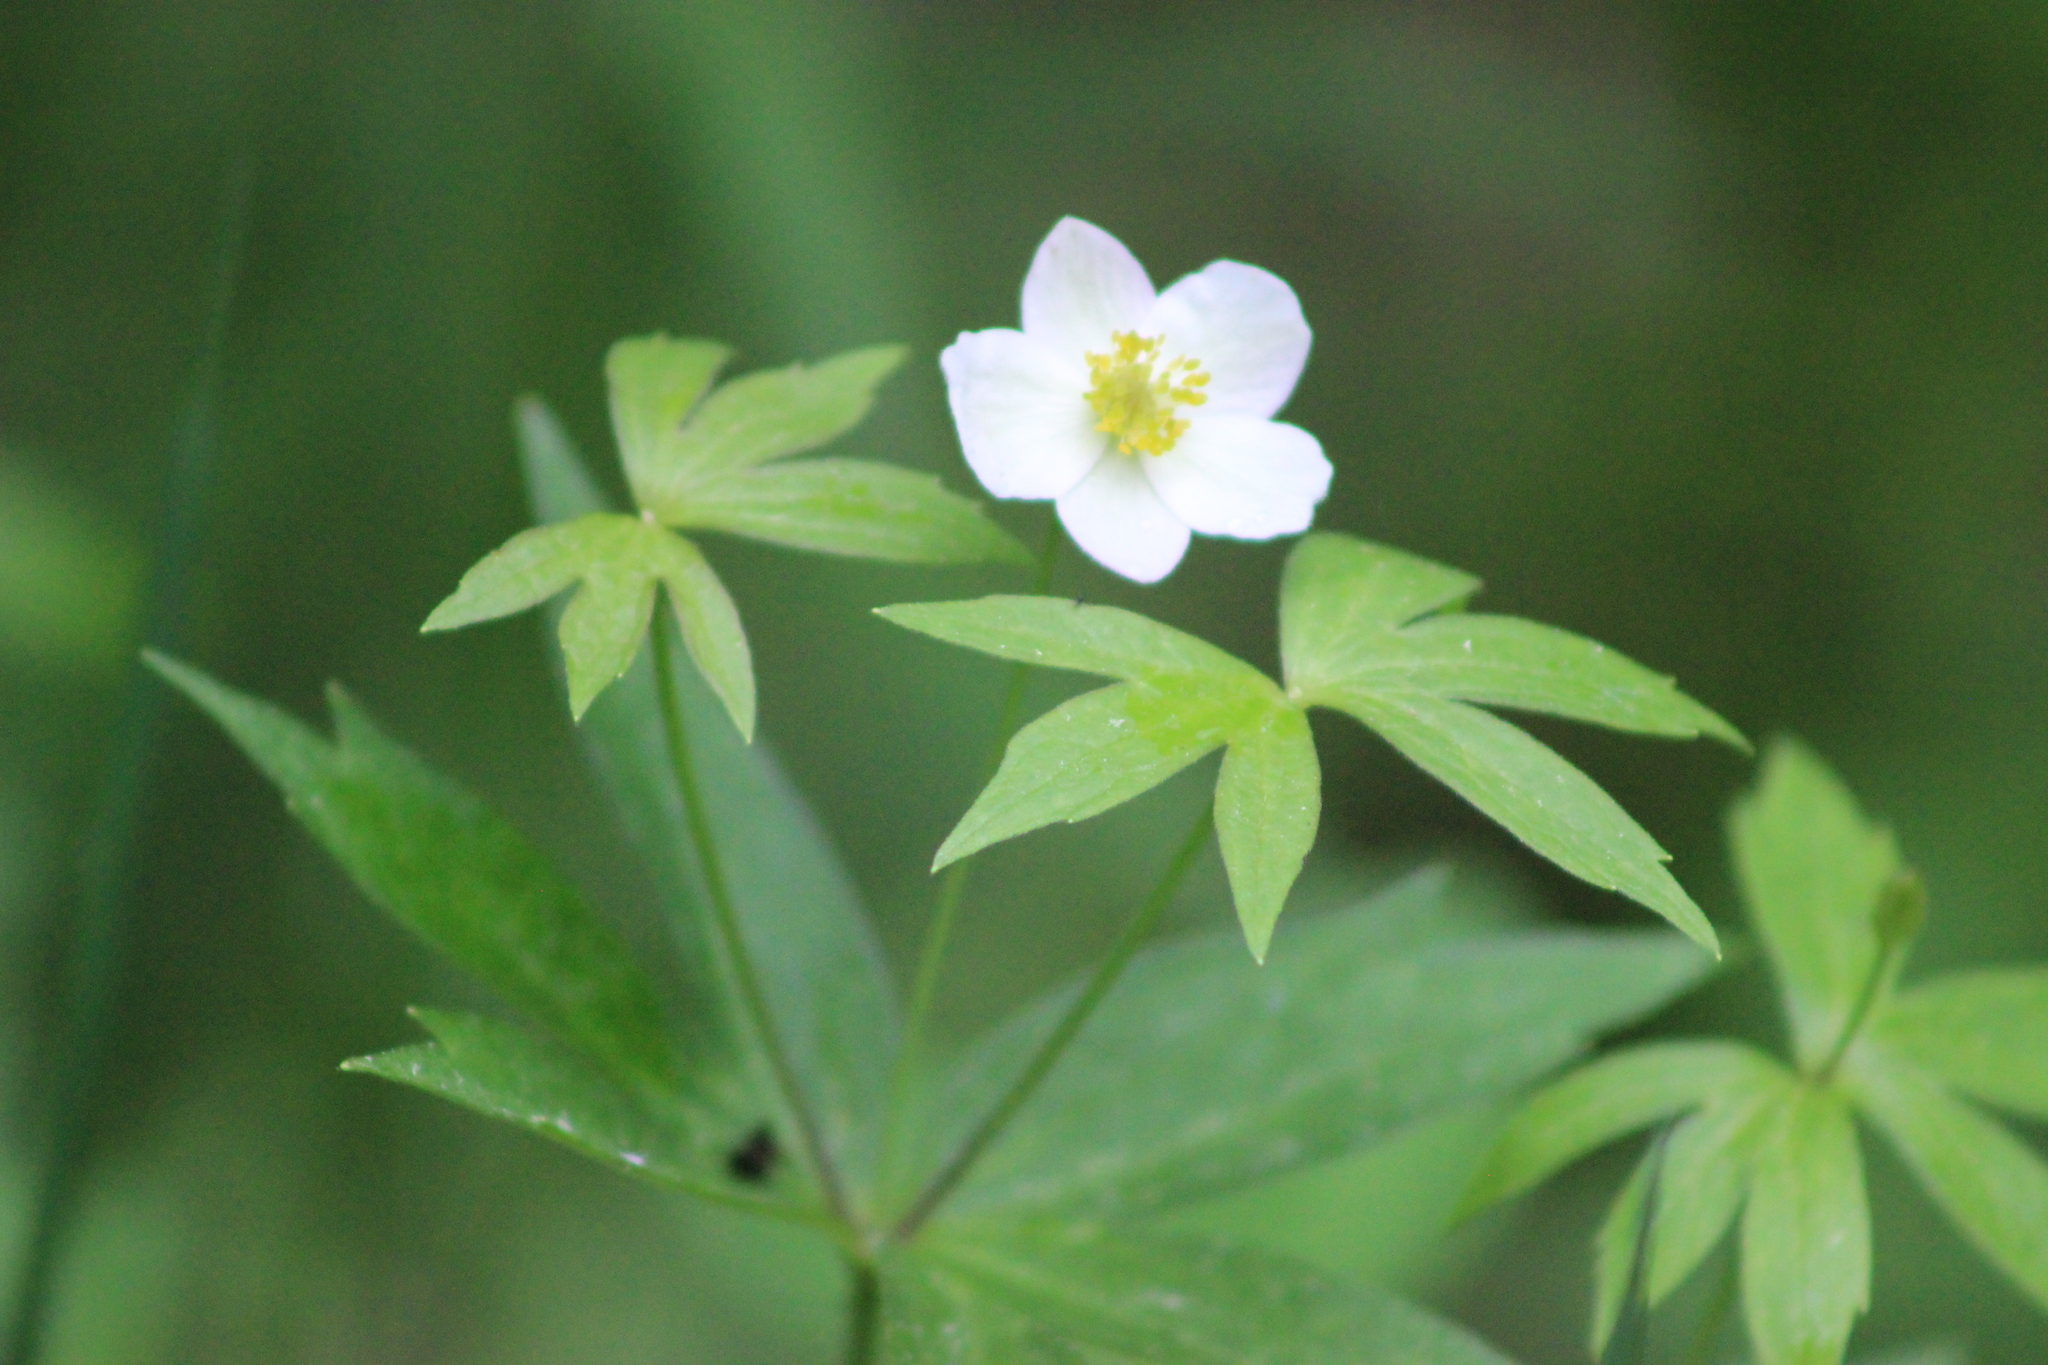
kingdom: Plantae
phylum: Tracheophyta
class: Magnoliopsida
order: Ranunculales
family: Ranunculaceae
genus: Anemonastrum
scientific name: Anemonastrum dichotomum
